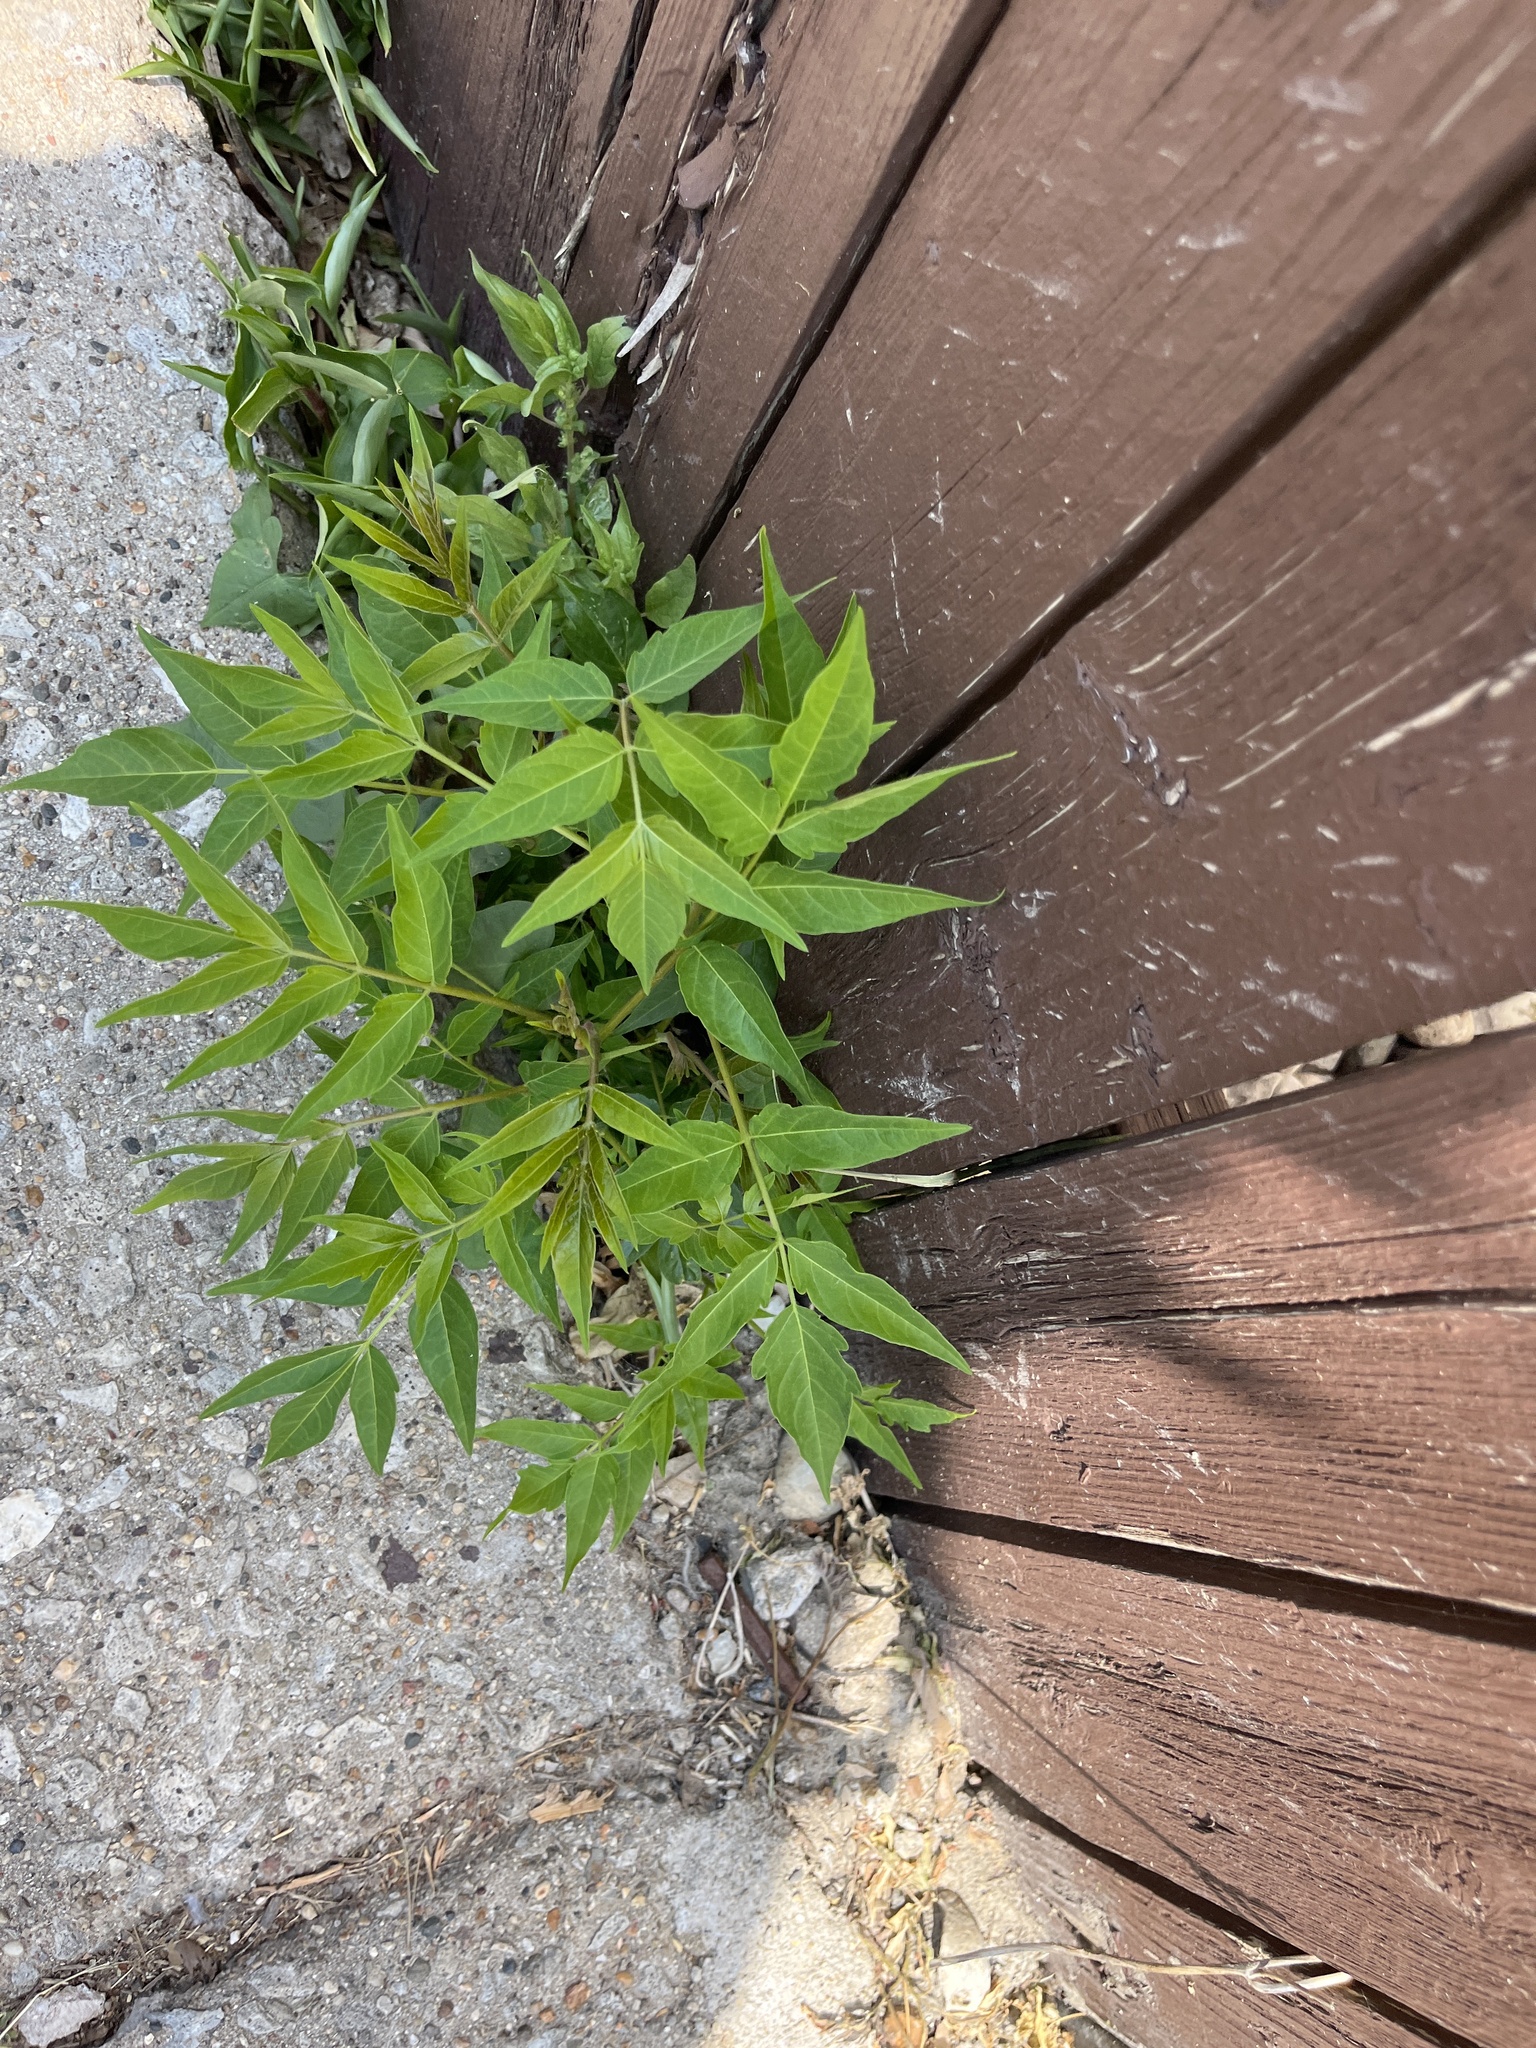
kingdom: Plantae
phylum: Tracheophyta
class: Magnoliopsida
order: Sapindales
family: Simaroubaceae
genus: Ailanthus
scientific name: Ailanthus altissima
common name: Tree-of-heaven
